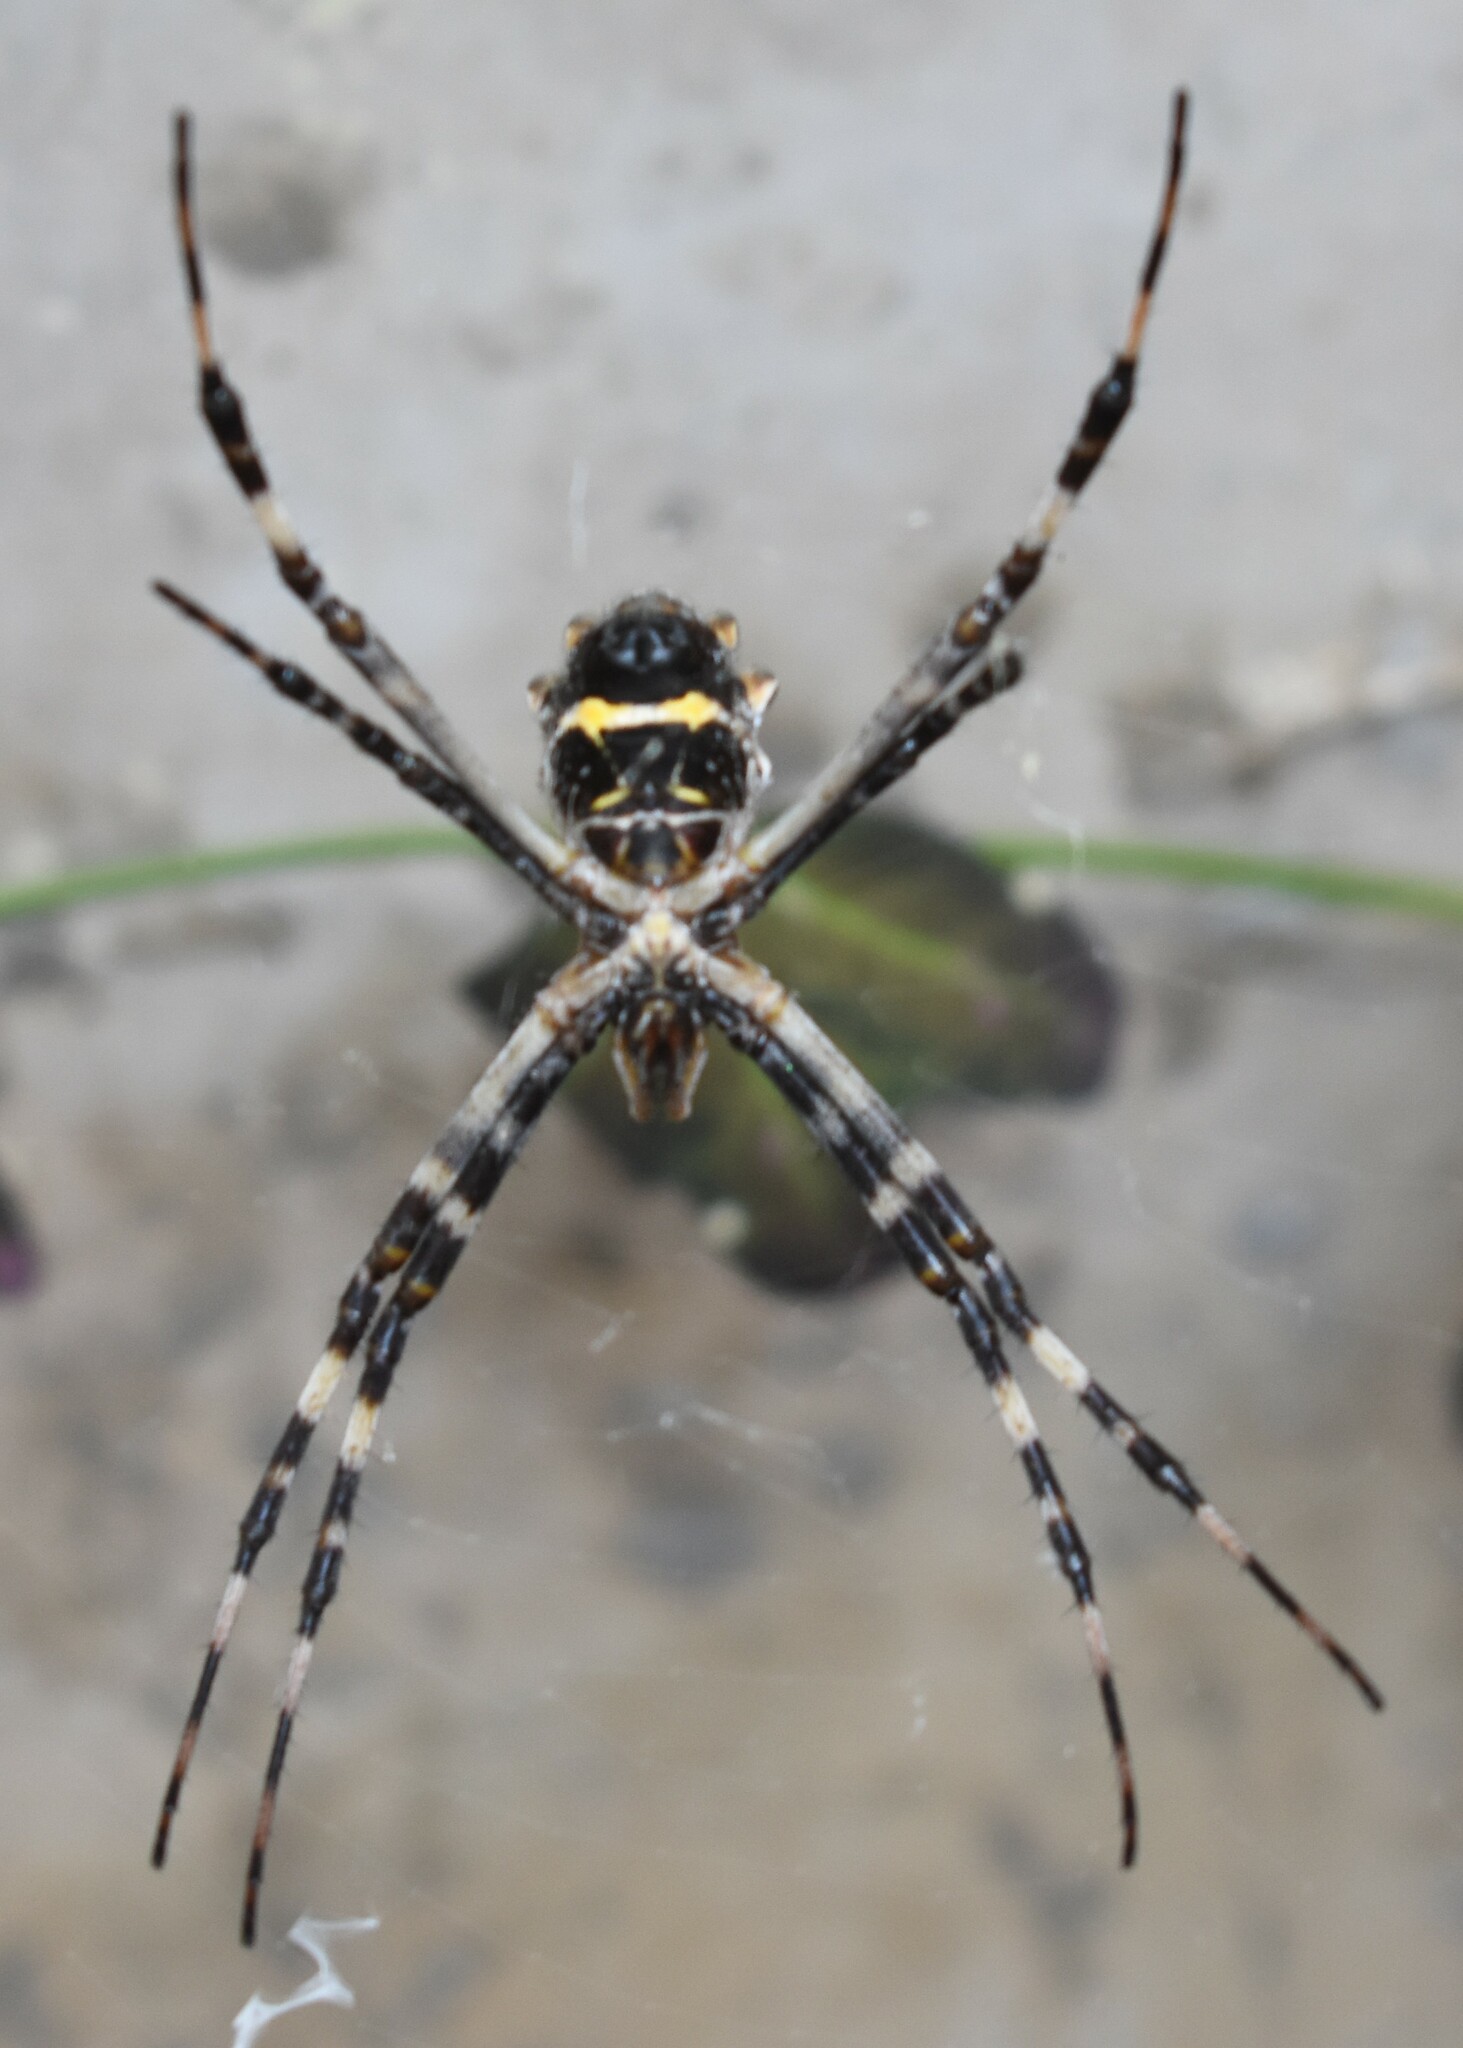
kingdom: Animalia
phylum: Arthropoda
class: Arachnida
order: Araneae
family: Araneidae
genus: Argiope
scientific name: Argiope argentata
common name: Orb weavers
